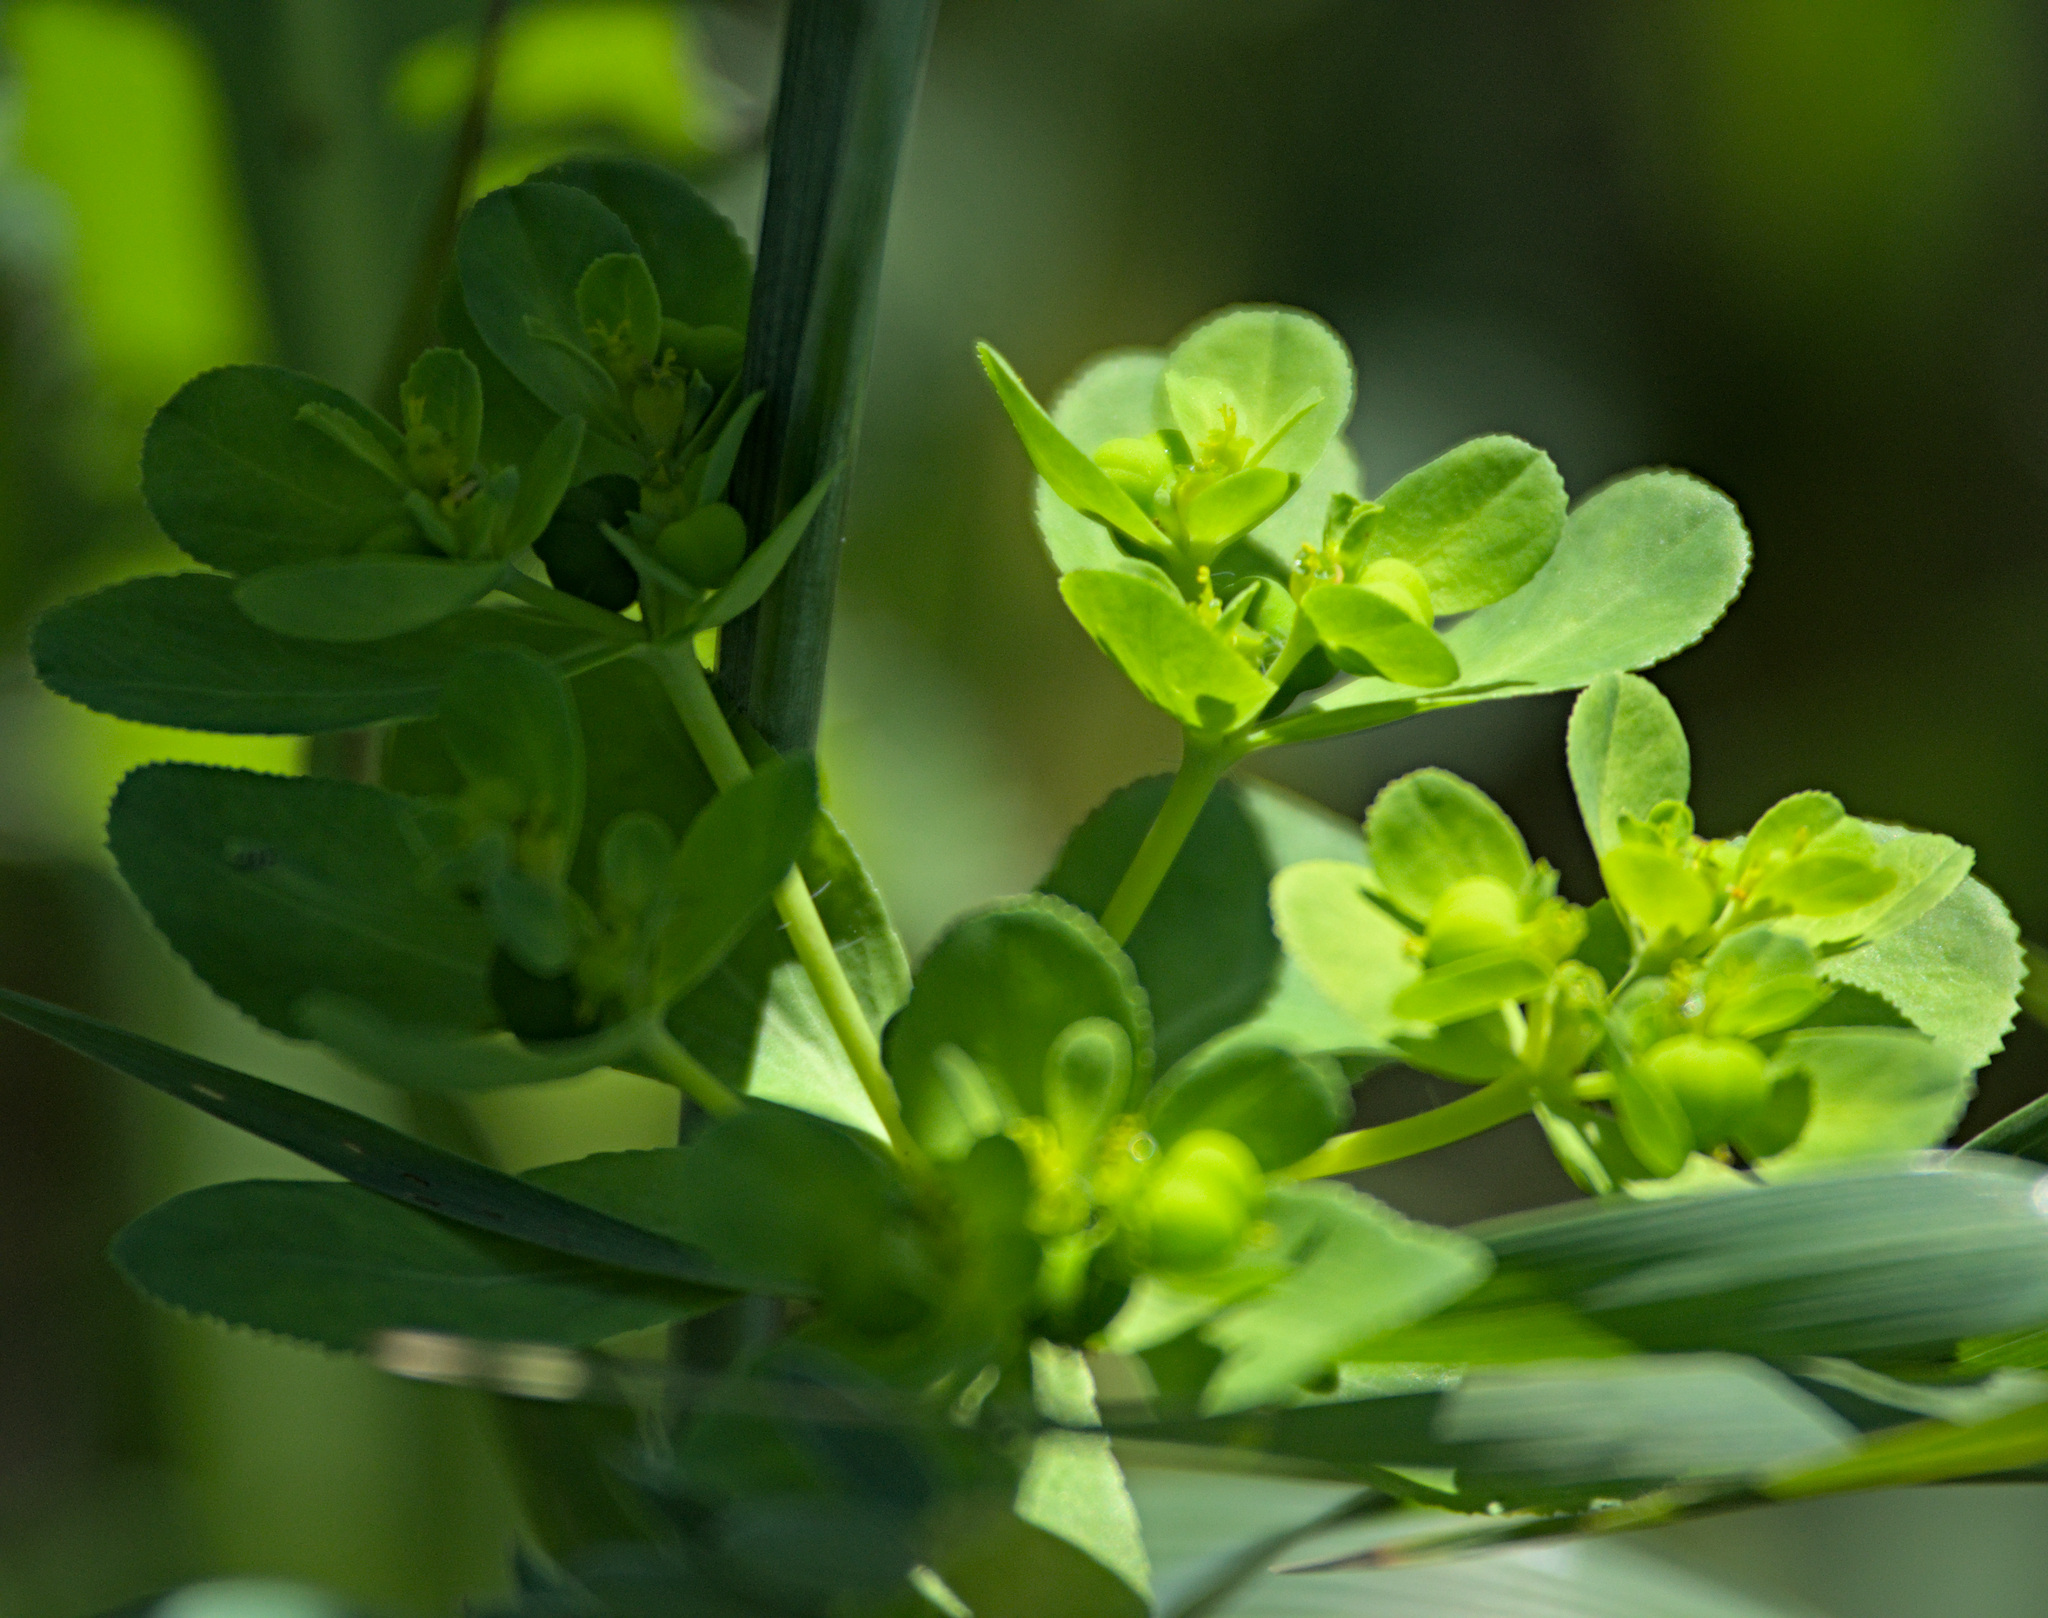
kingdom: Plantae
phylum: Tracheophyta
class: Magnoliopsida
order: Malpighiales
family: Euphorbiaceae
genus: Euphorbia
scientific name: Euphorbia helioscopia
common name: Sun spurge
